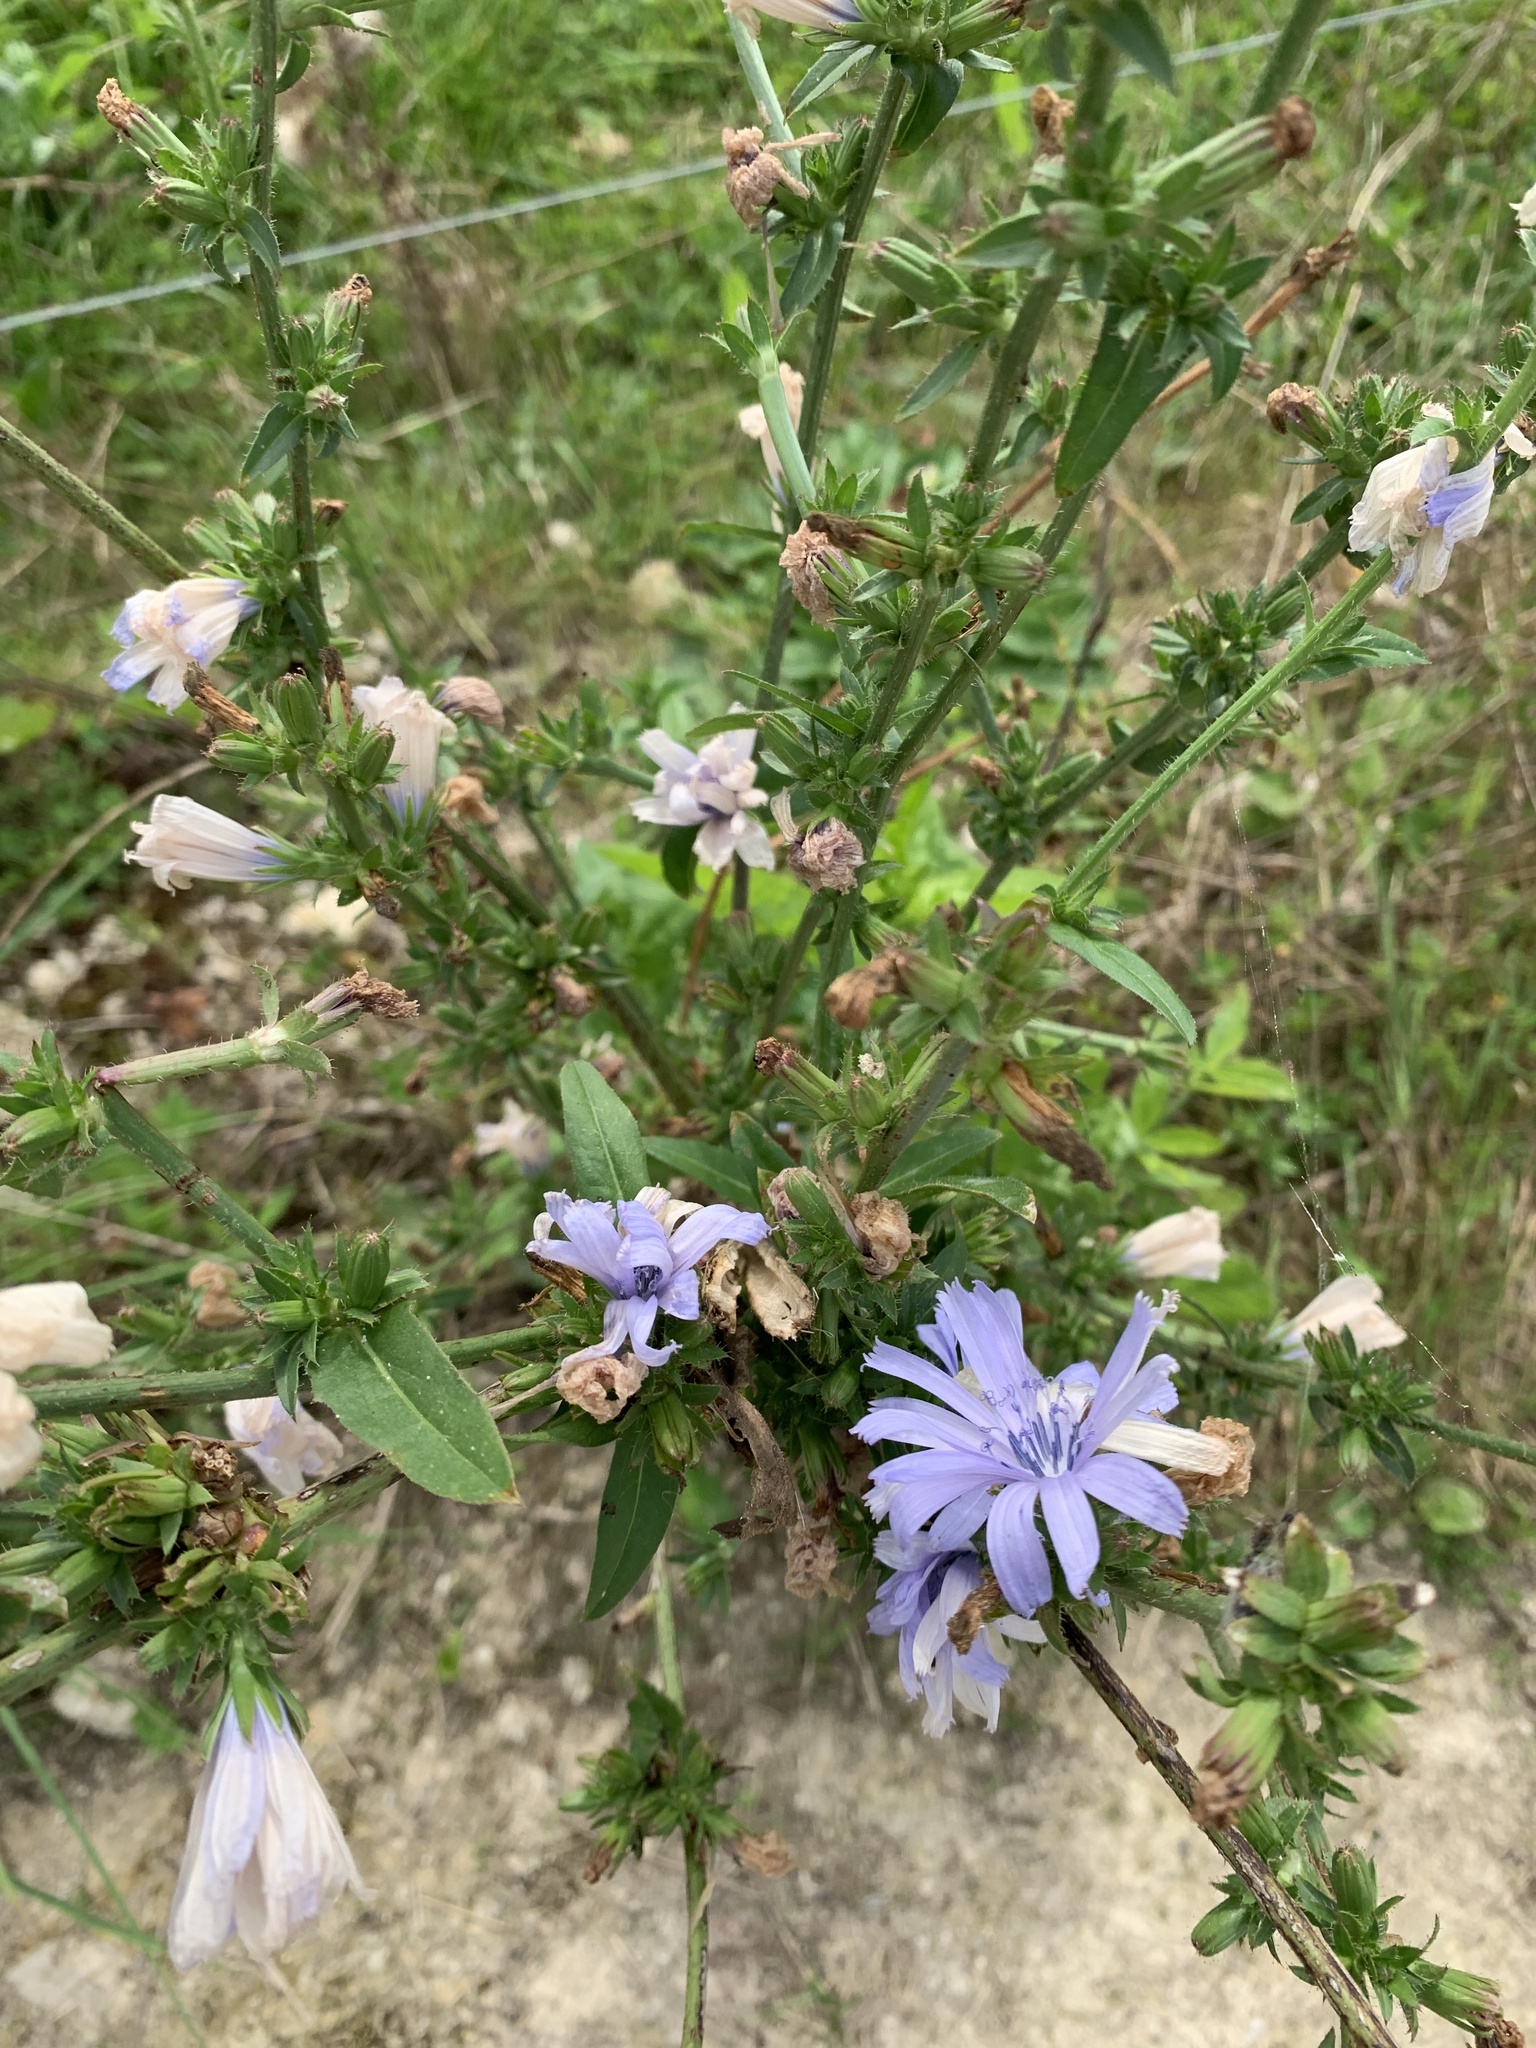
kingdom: Plantae
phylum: Tracheophyta
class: Magnoliopsida
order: Asterales
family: Asteraceae
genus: Cichorium
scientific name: Cichorium intybus
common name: Chicory
